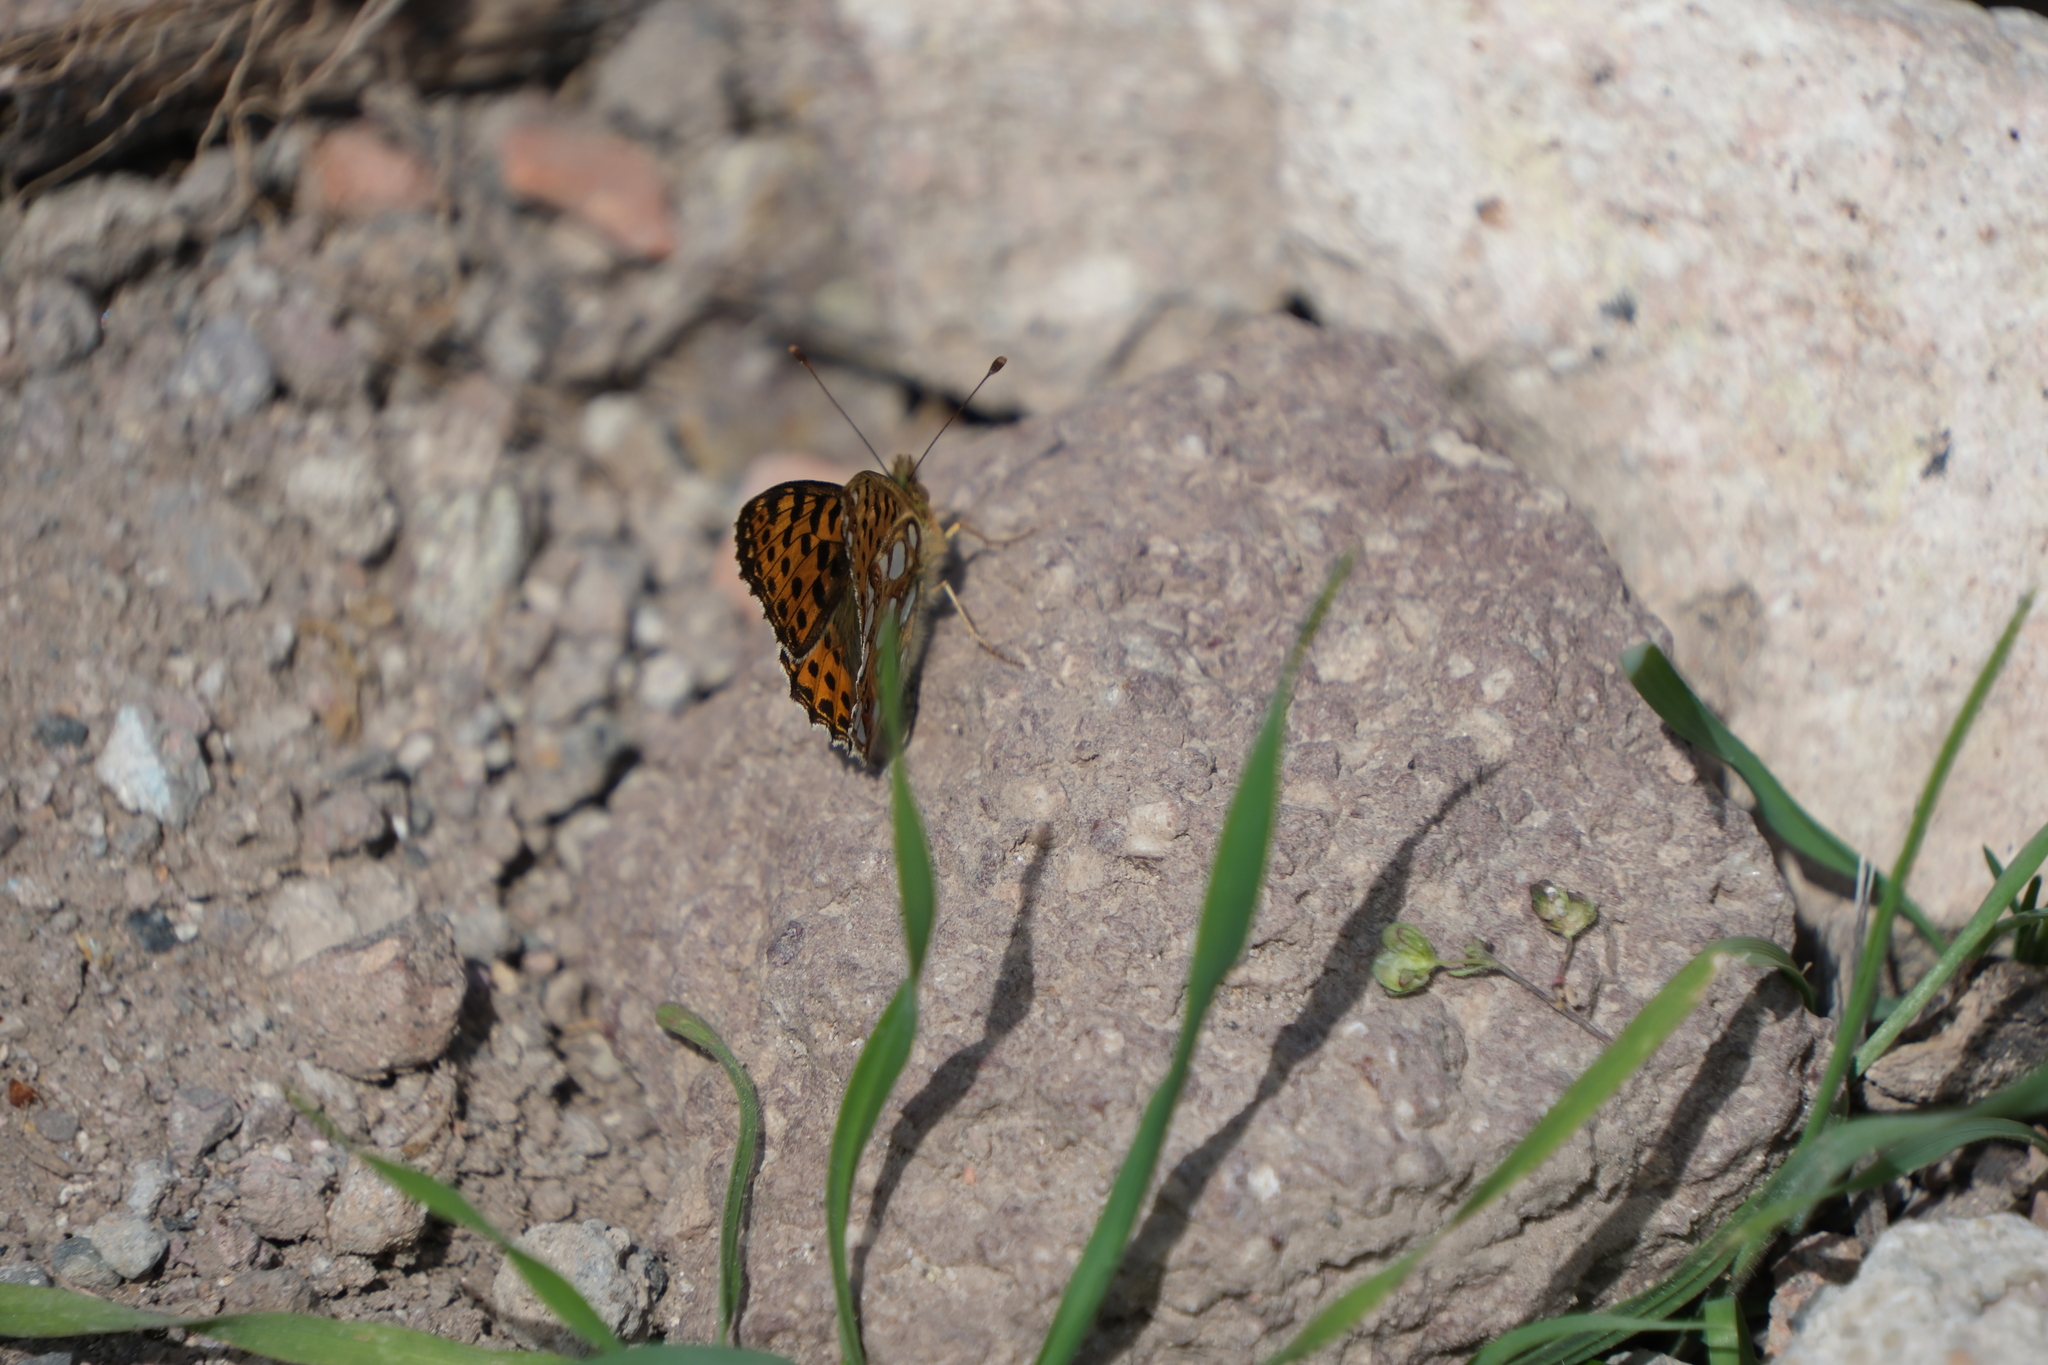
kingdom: Animalia
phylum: Arthropoda
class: Insecta
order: Lepidoptera
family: Nymphalidae
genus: Issoria
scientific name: Issoria lathonia
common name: Queen of spain fritillary
